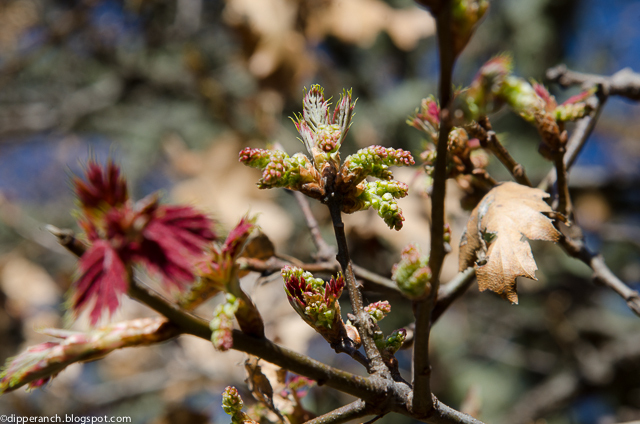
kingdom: Plantae
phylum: Tracheophyta
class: Magnoliopsida
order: Fagales
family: Fagaceae
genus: Quercus
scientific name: Quercus kelloggii
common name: California black oak
